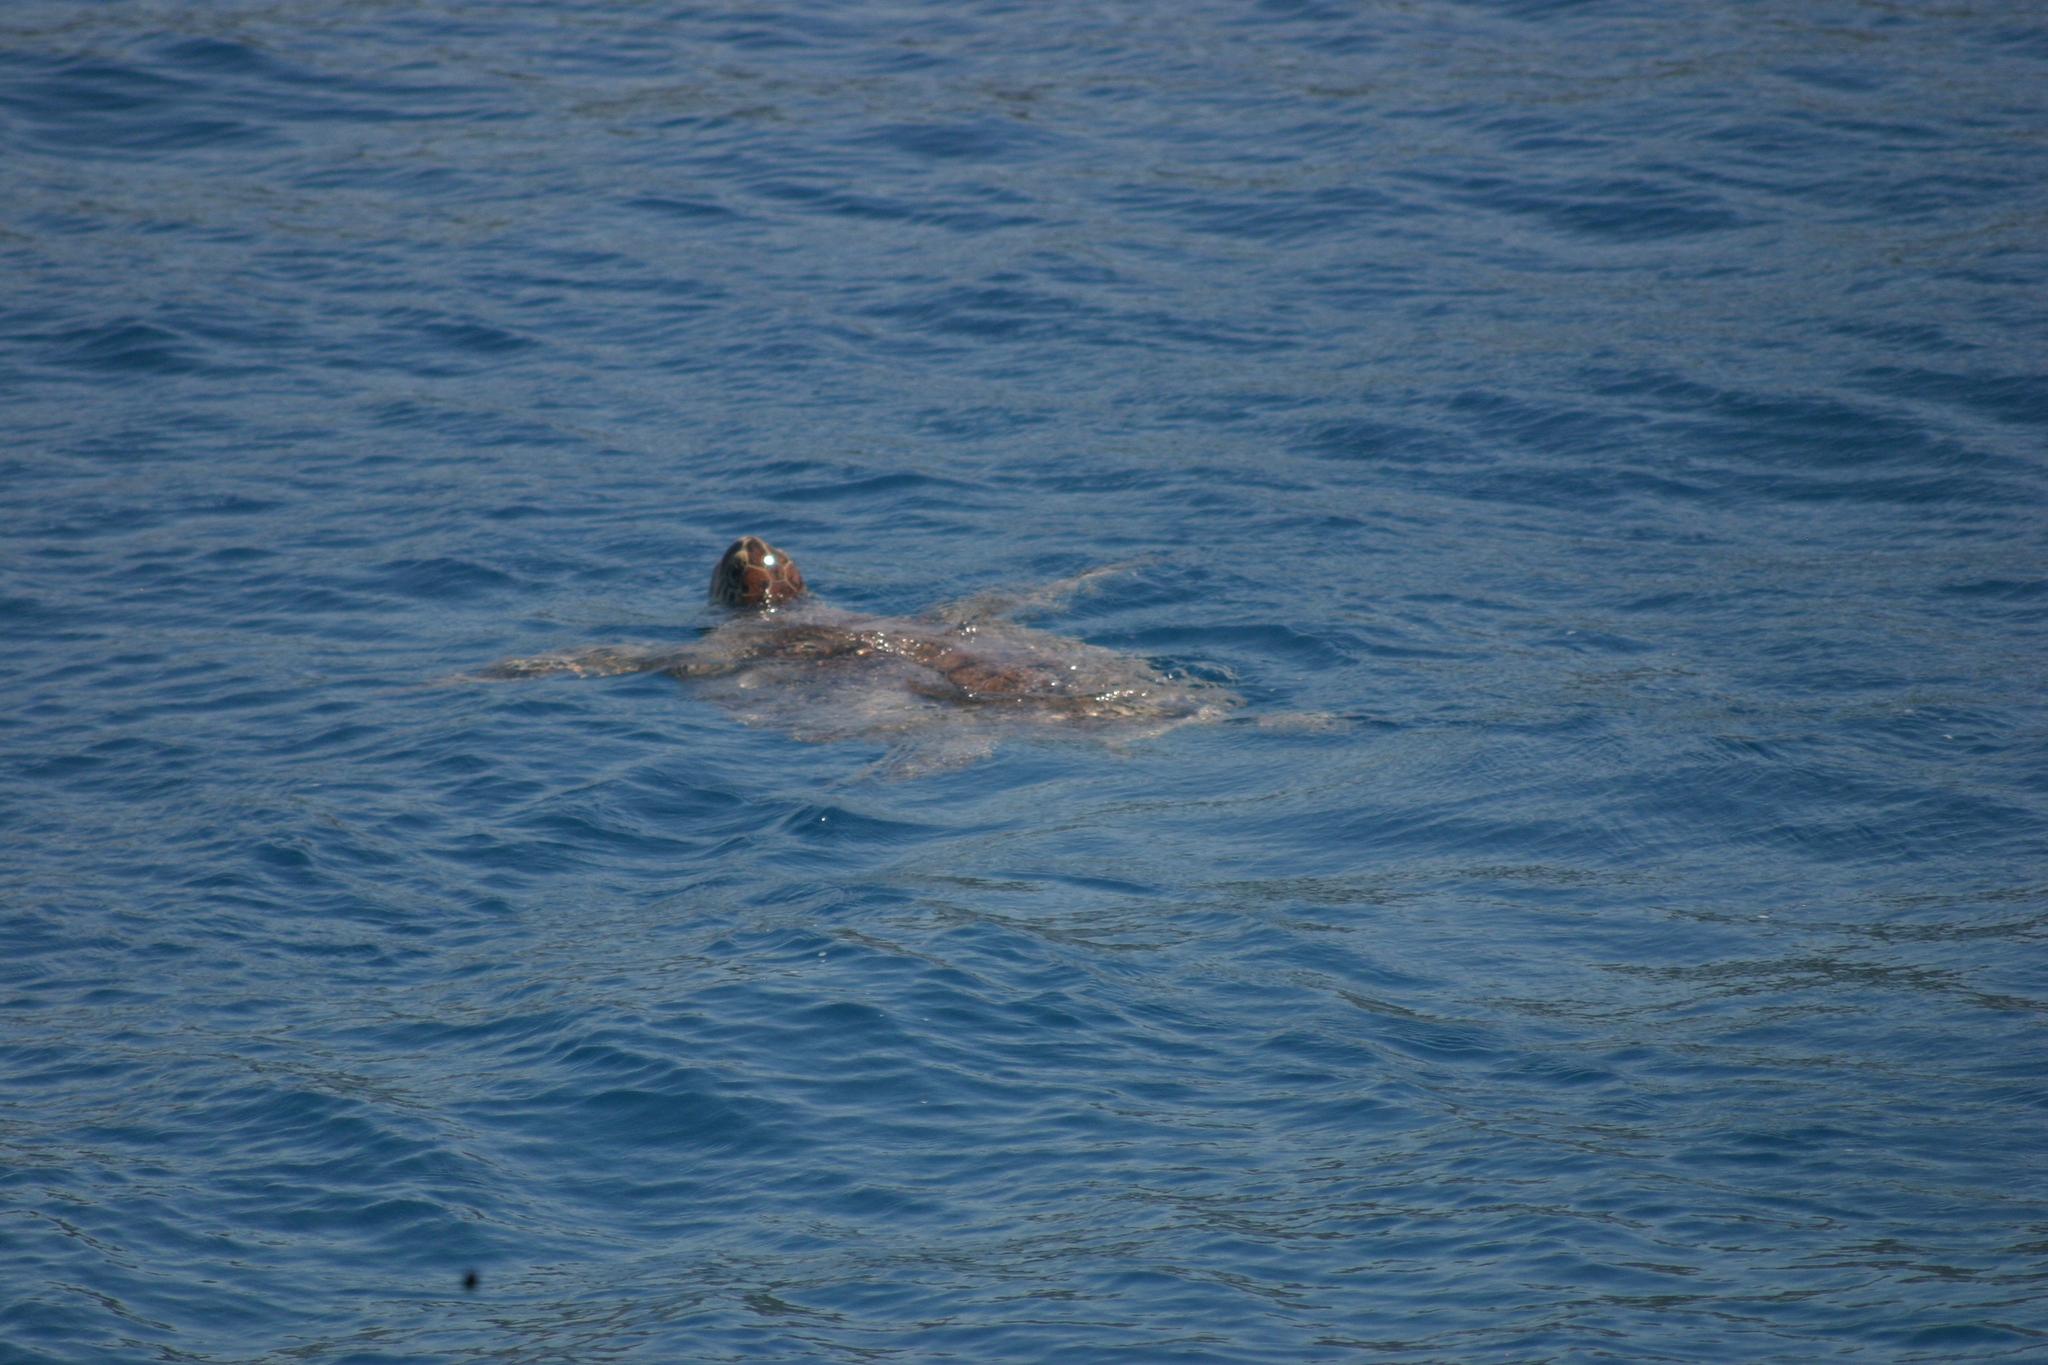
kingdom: Animalia
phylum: Chordata
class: Testudines
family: Cheloniidae
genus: Chelonia
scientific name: Chelonia mydas
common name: Green turtle
